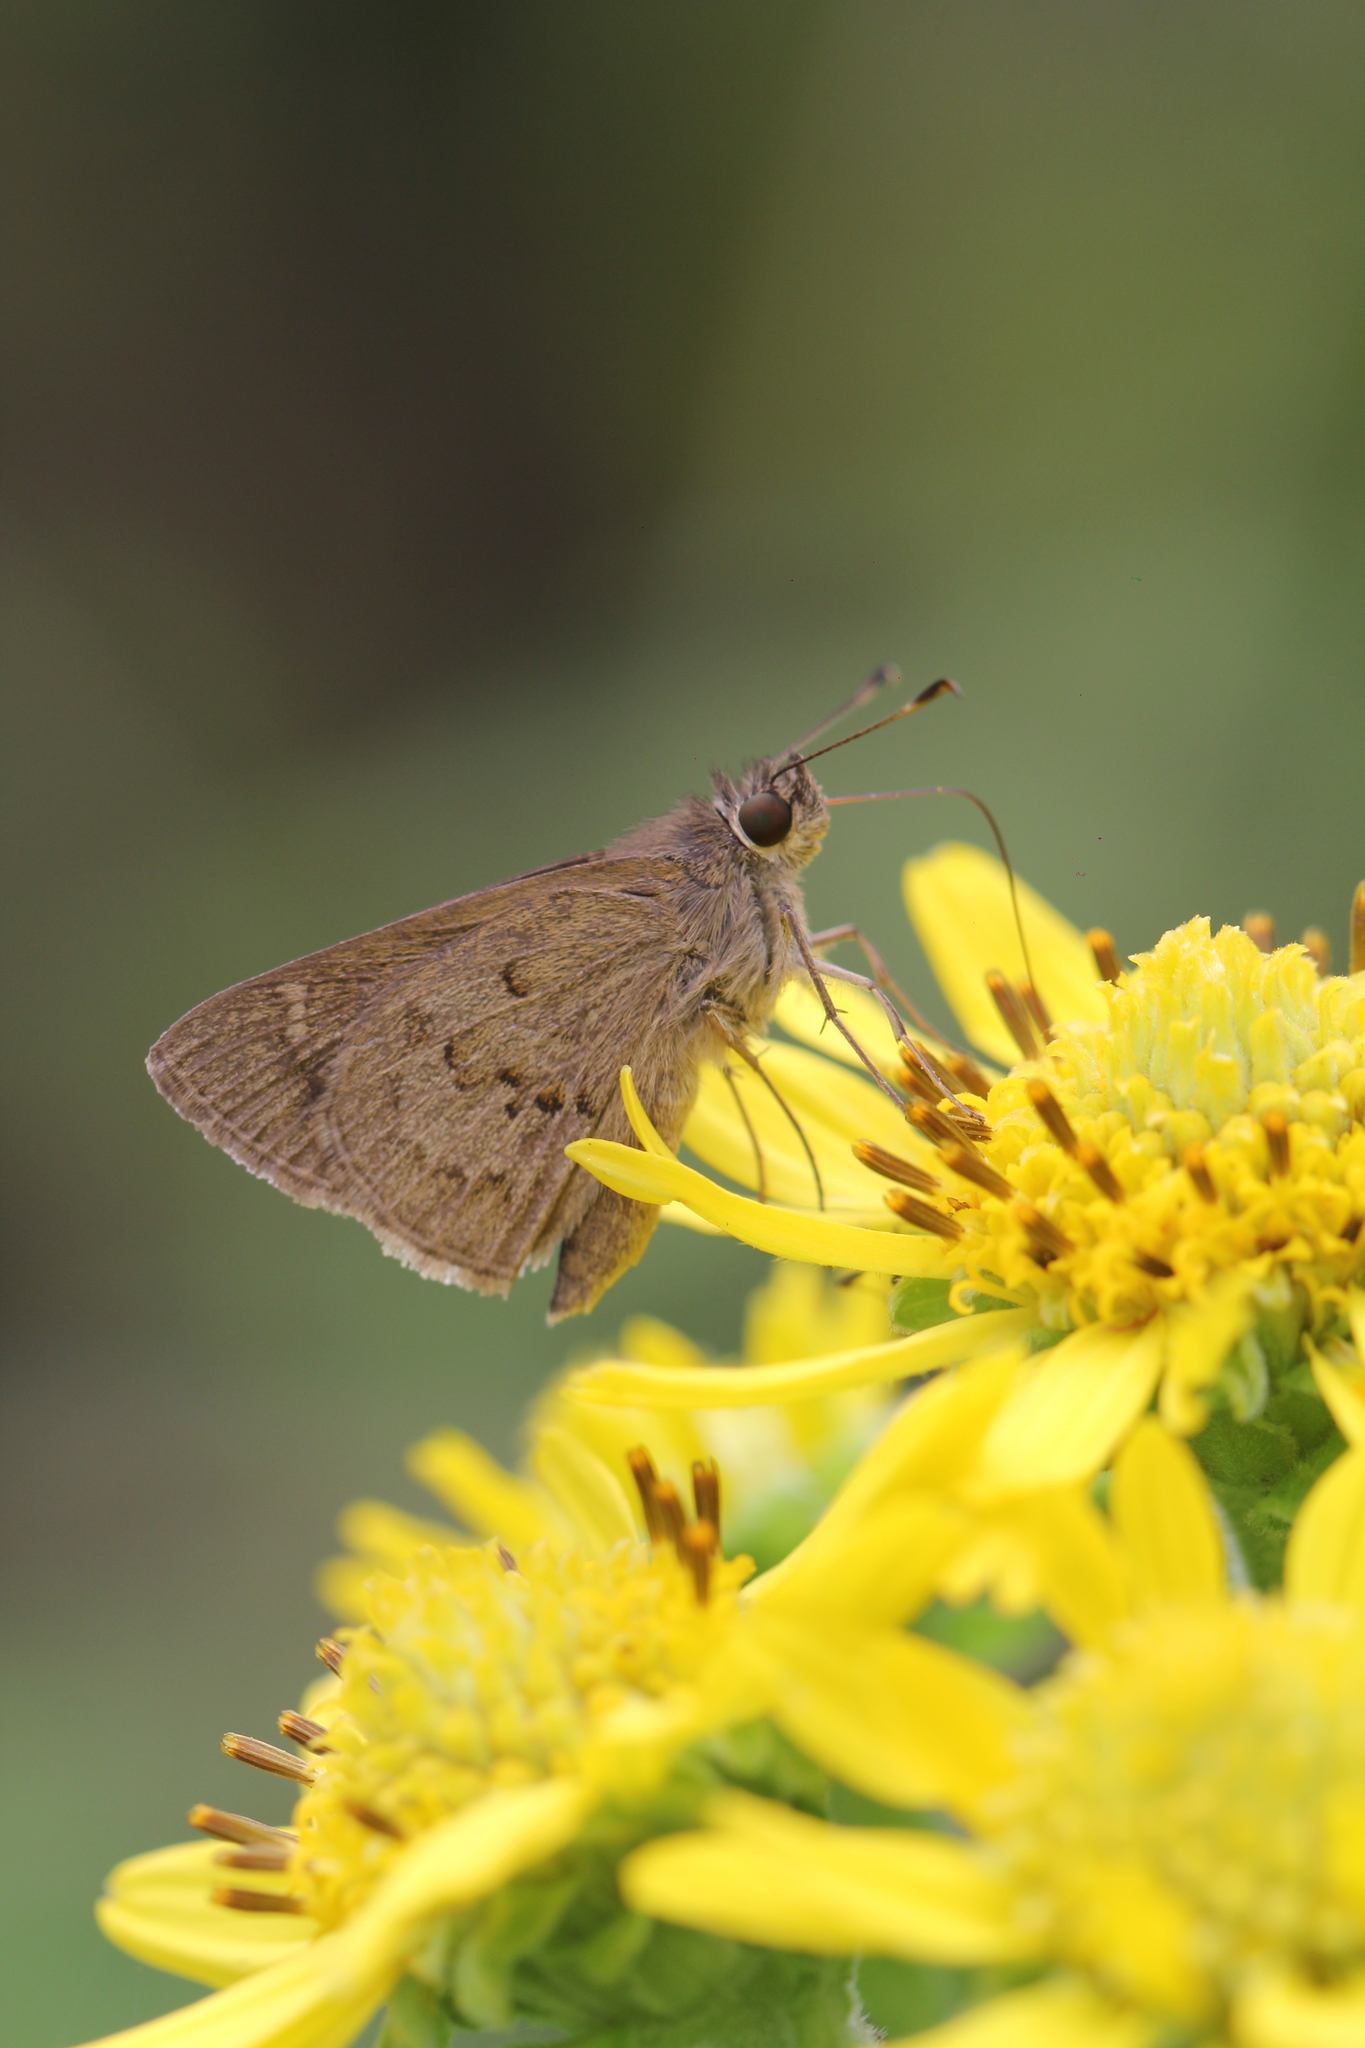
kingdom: Animalia
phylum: Arthropoda
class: Insecta
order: Lepidoptera
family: Hesperiidae
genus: Cymaenes
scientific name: Cymaenes gisca
